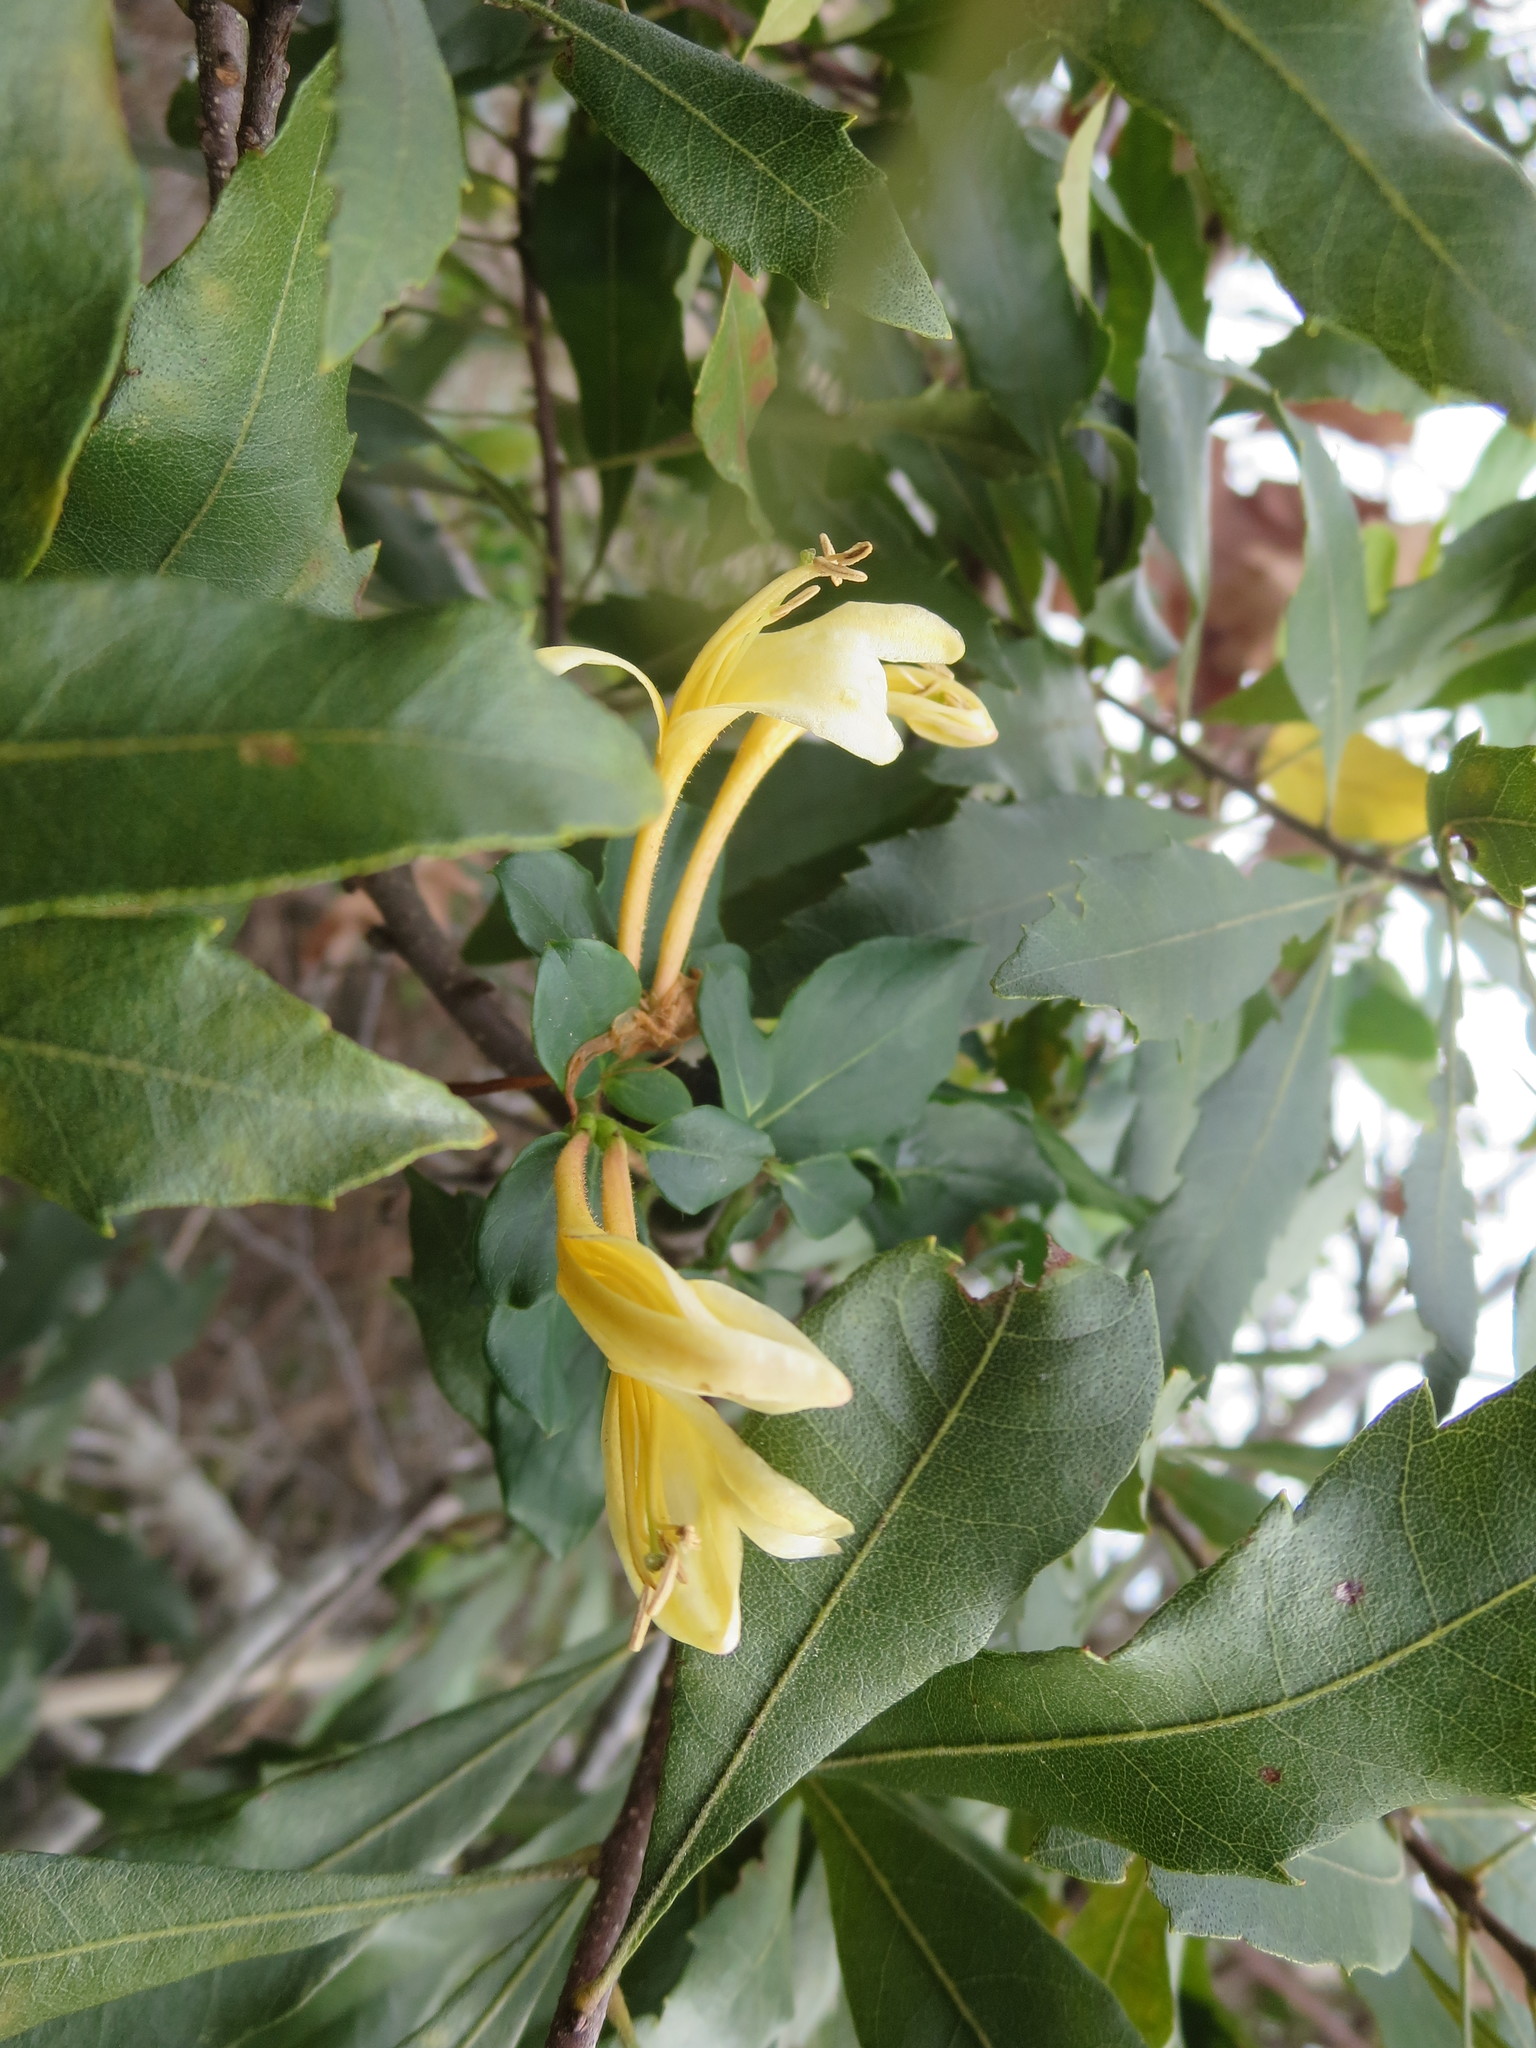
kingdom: Plantae
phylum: Tracheophyta
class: Magnoliopsida
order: Dipsacales
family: Caprifoliaceae
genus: Lonicera
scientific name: Lonicera japonica
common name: Japanese honeysuckle
